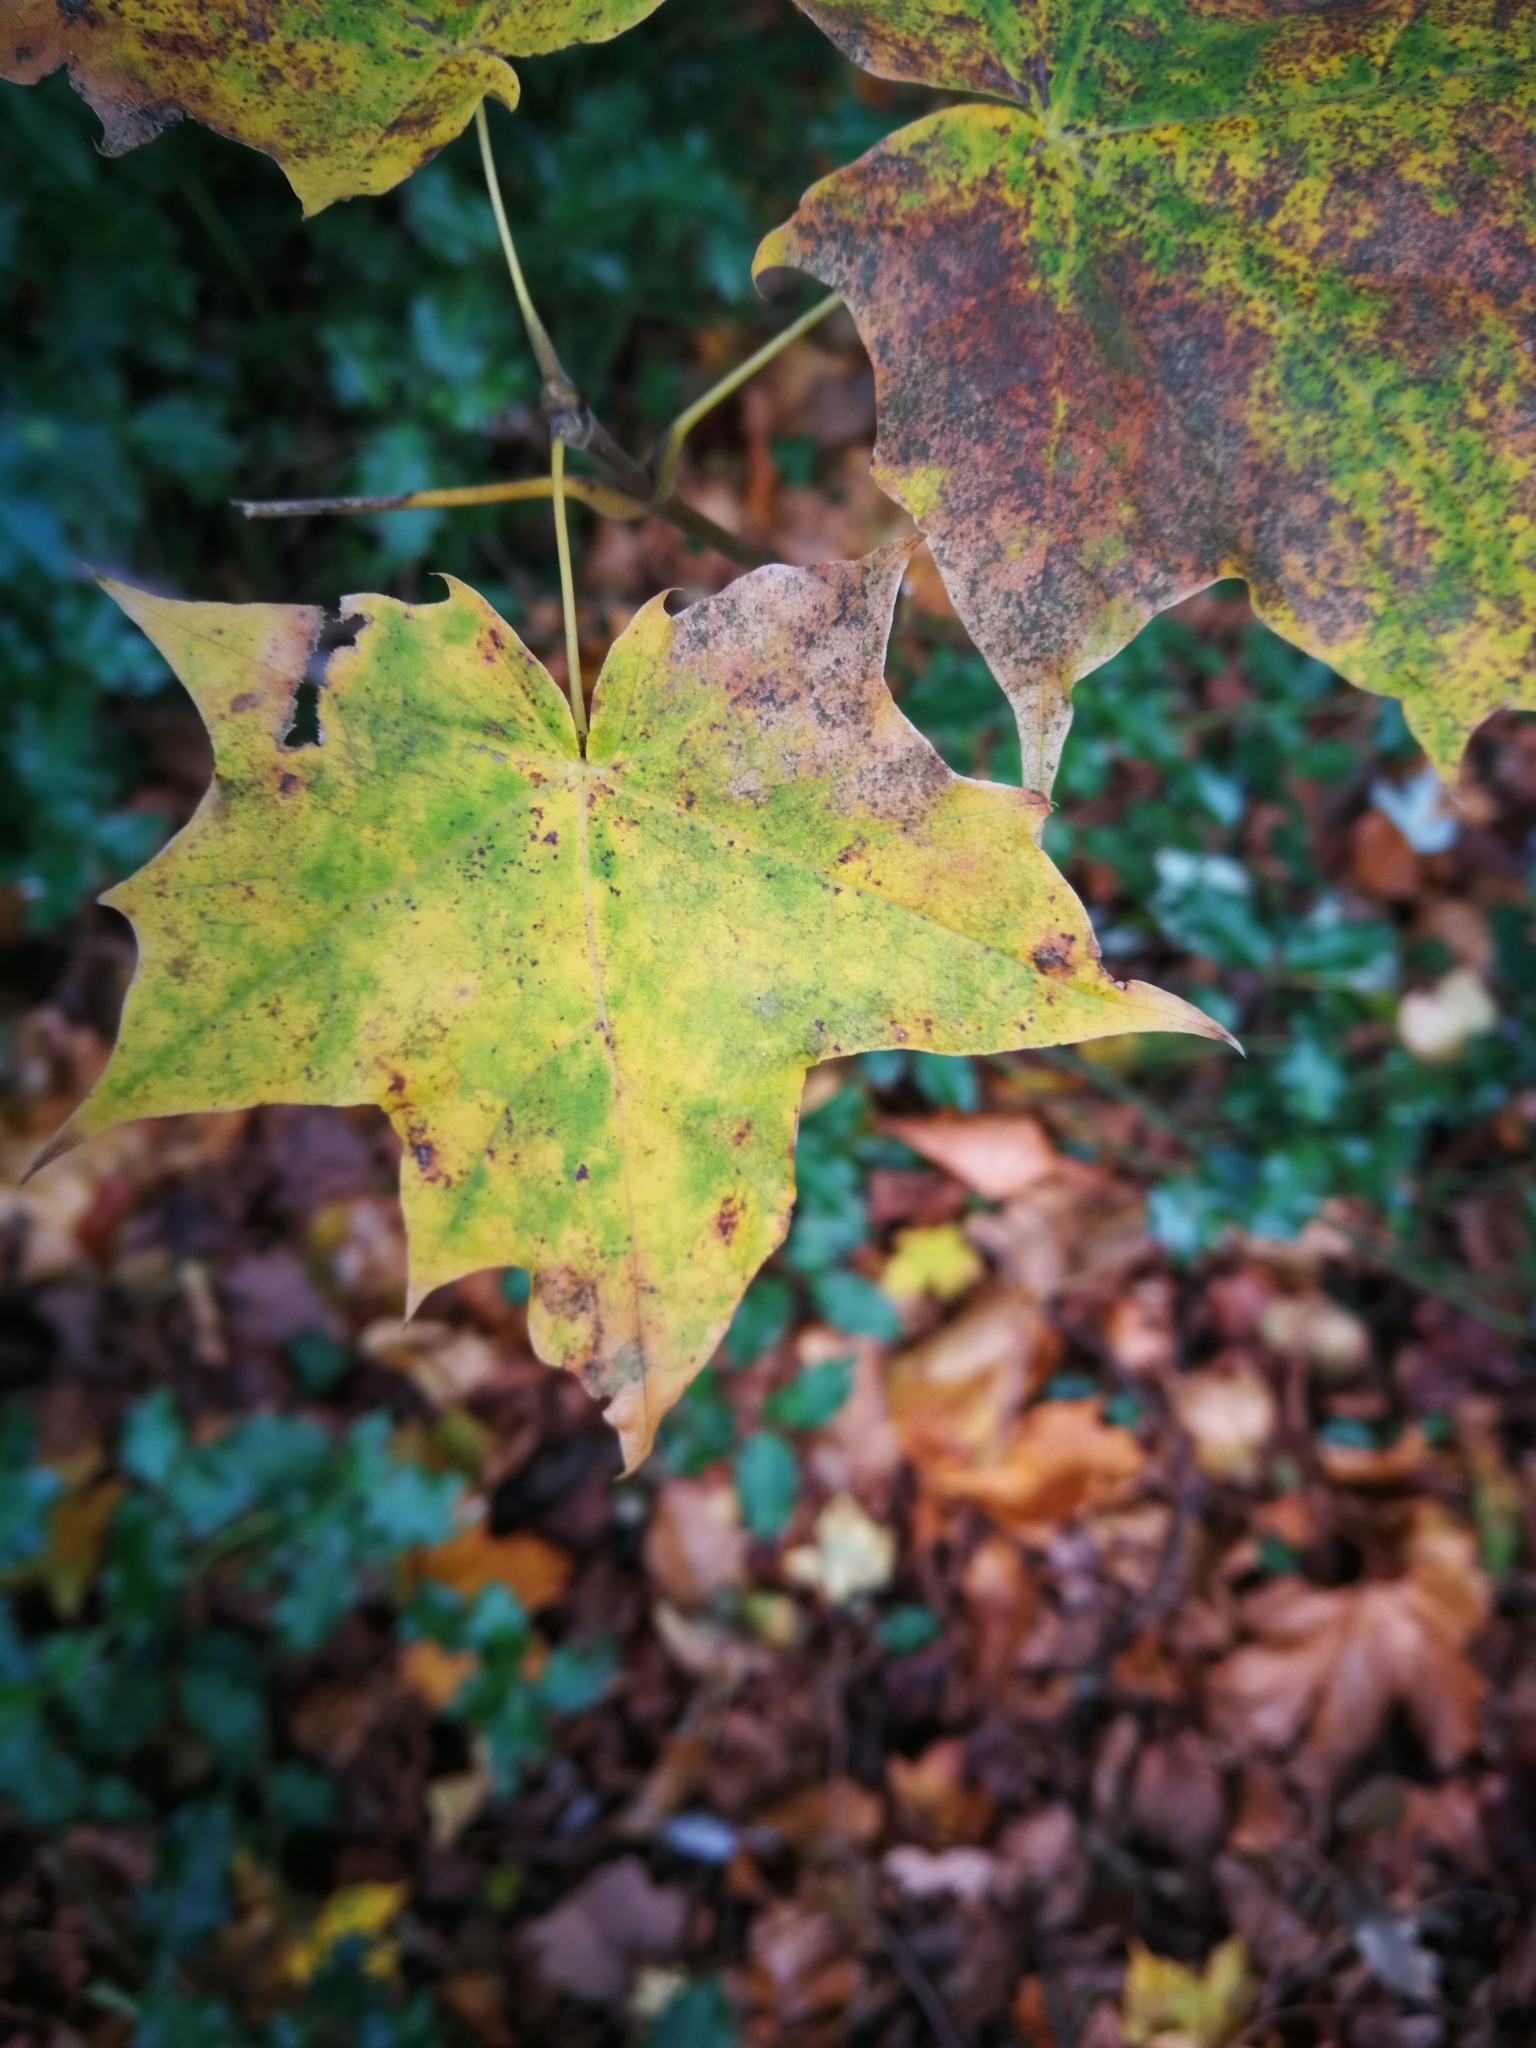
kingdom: Plantae
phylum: Tracheophyta
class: Magnoliopsida
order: Sapindales
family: Sapindaceae
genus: Acer
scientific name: Acer platanoides
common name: Norway maple
